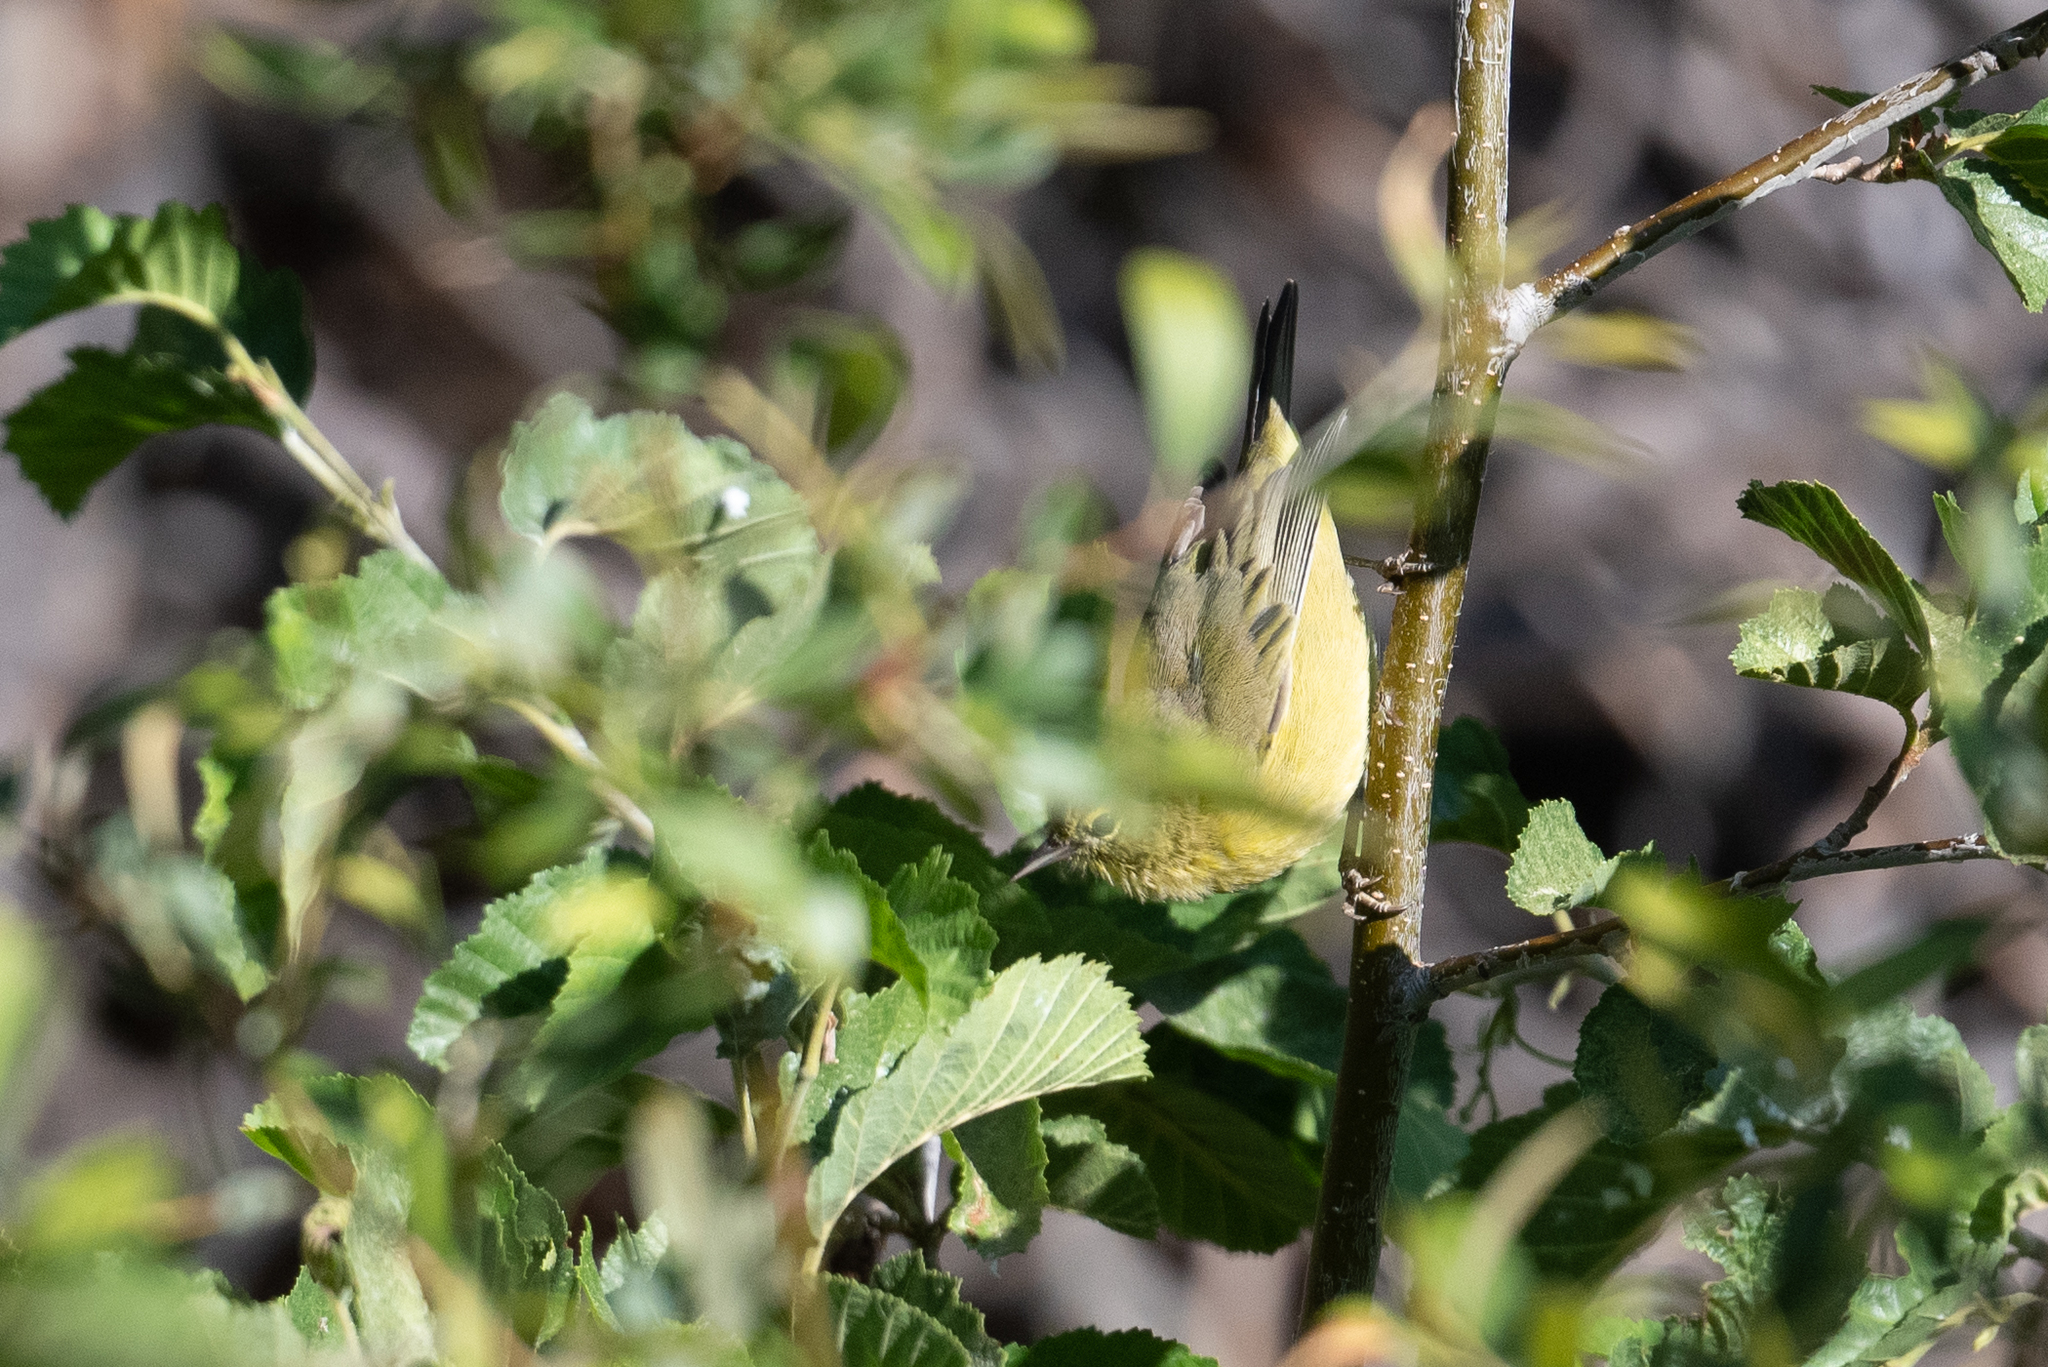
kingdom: Animalia
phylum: Chordata
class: Aves
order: Passeriformes
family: Parulidae
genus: Leiothlypis
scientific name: Leiothlypis celata
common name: Orange-crowned warbler
